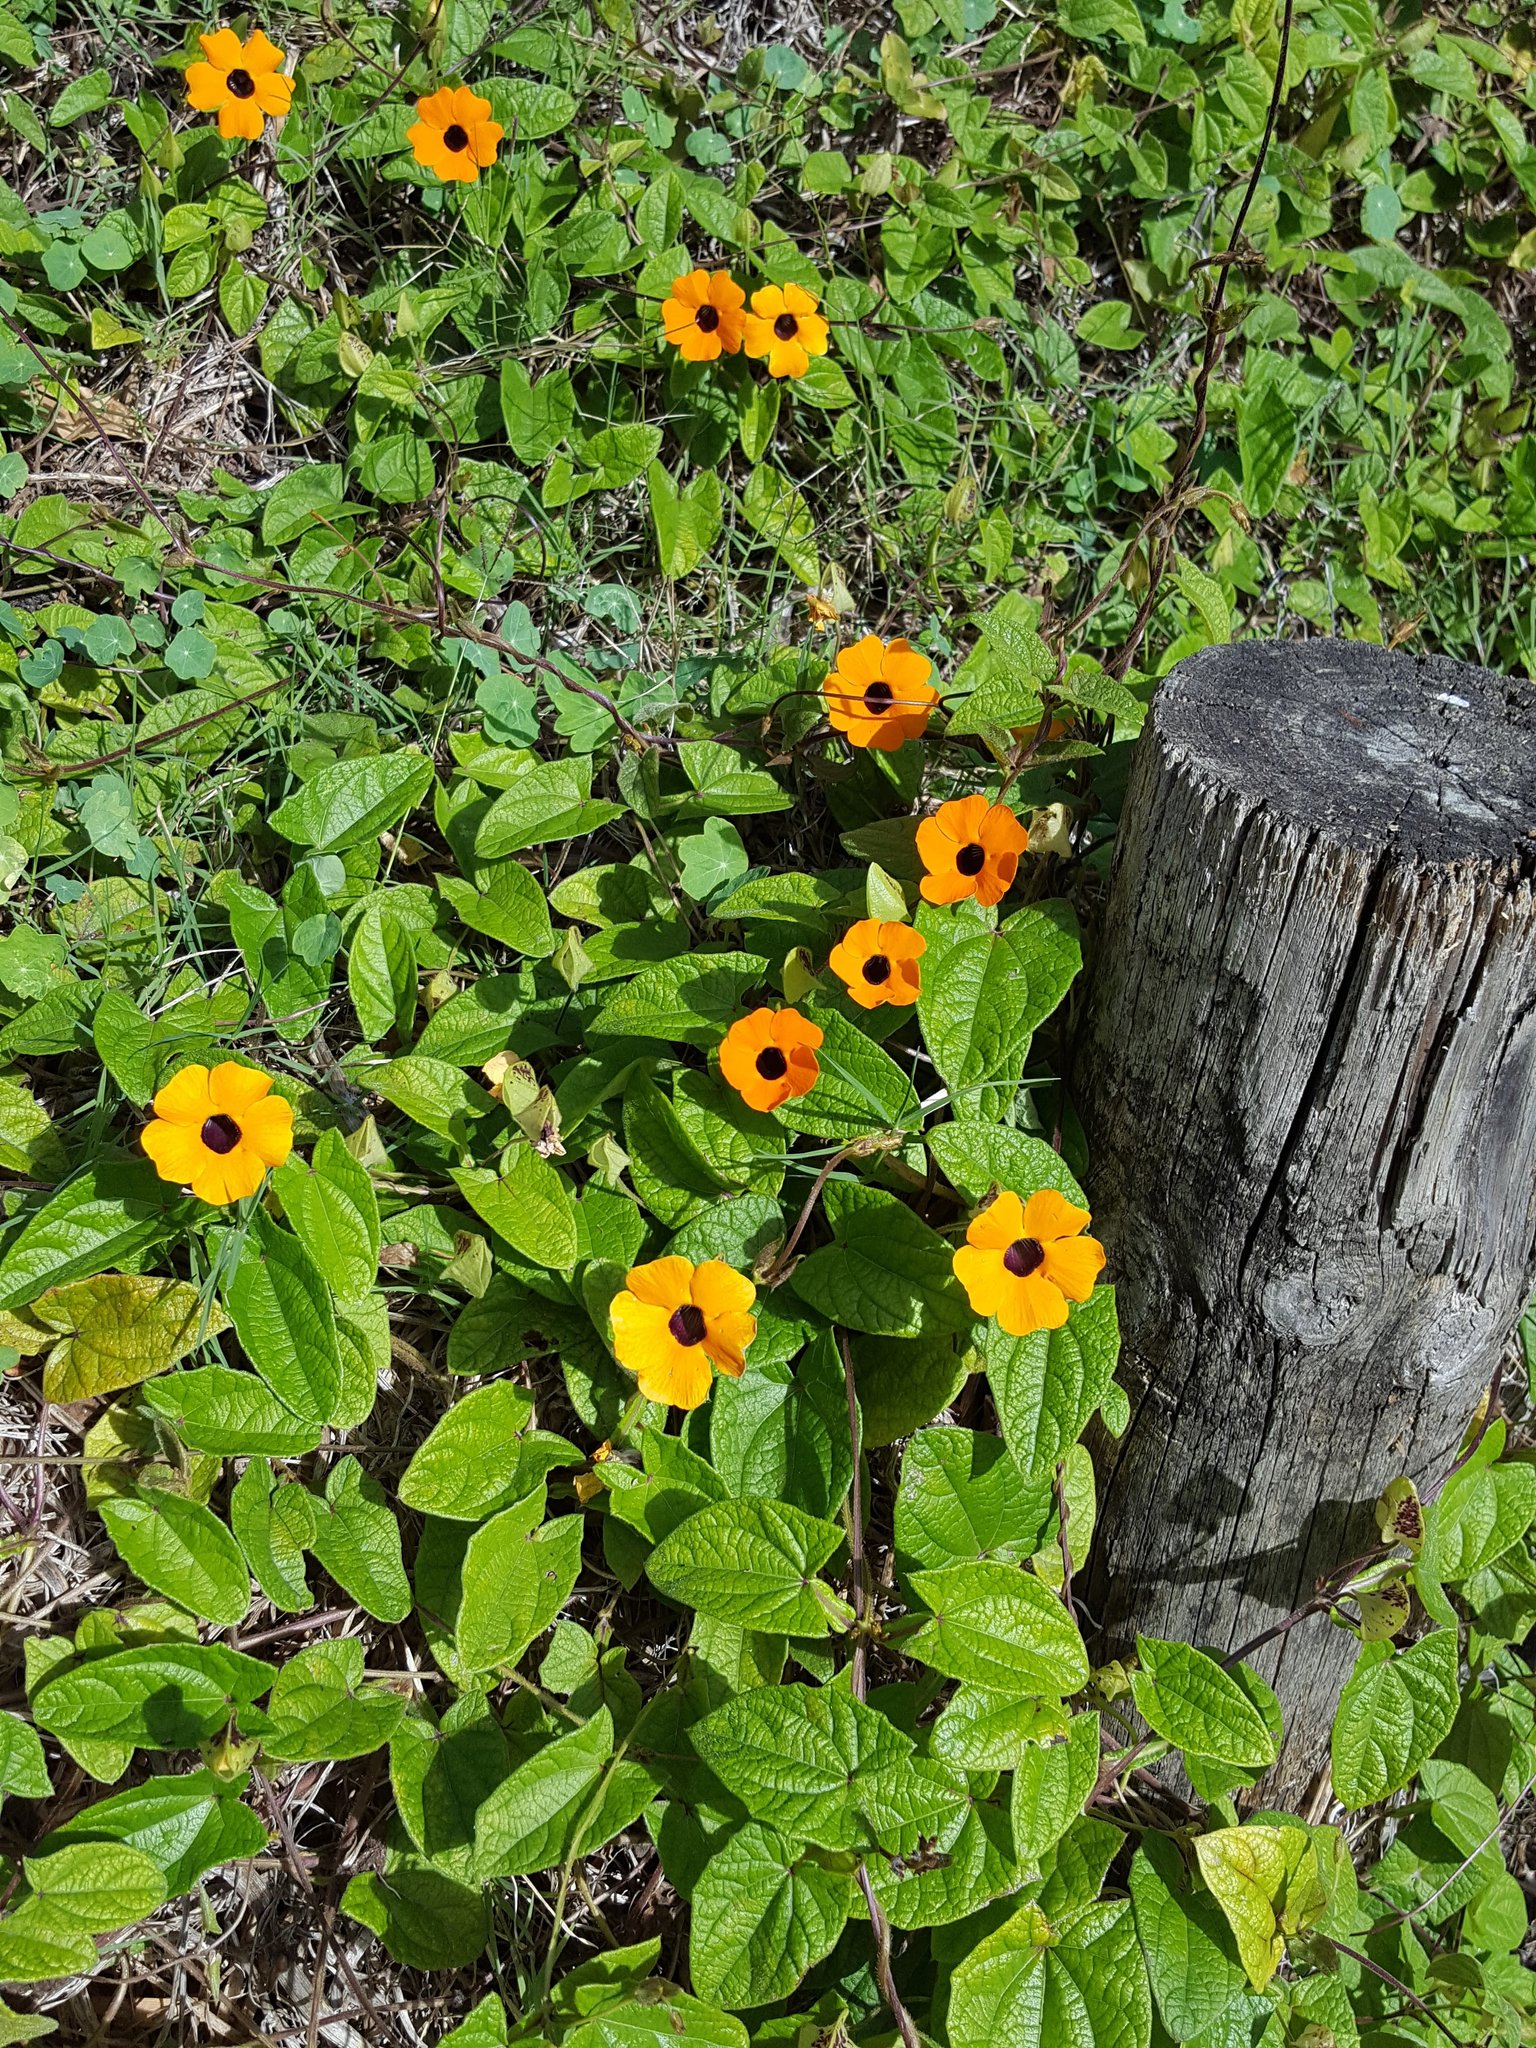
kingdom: Plantae
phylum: Tracheophyta
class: Magnoliopsida
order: Lamiales
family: Acanthaceae
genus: Thunbergia
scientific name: Thunbergia alata
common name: Blackeyed susan vine
